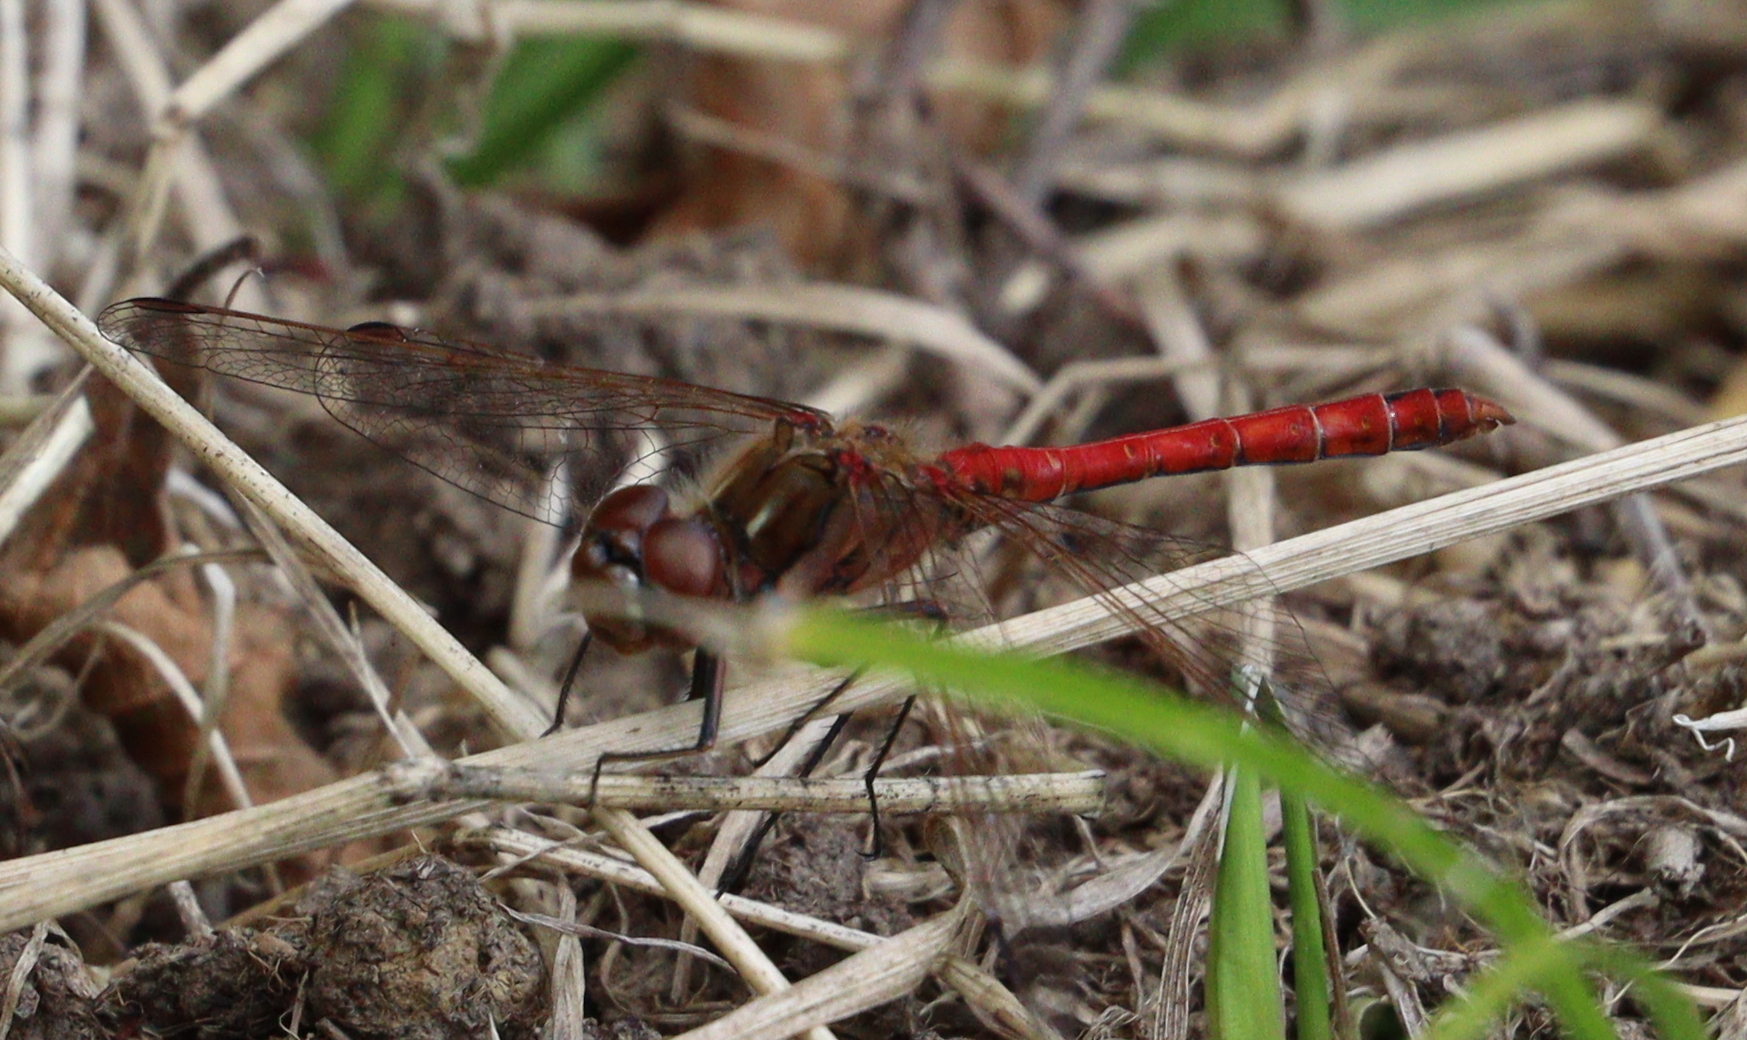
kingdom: Animalia
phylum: Arthropoda
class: Insecta
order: Odonata
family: Libellulidae
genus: Sympetrum
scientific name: Sympetrum vulgatum
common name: Vagrant darter
